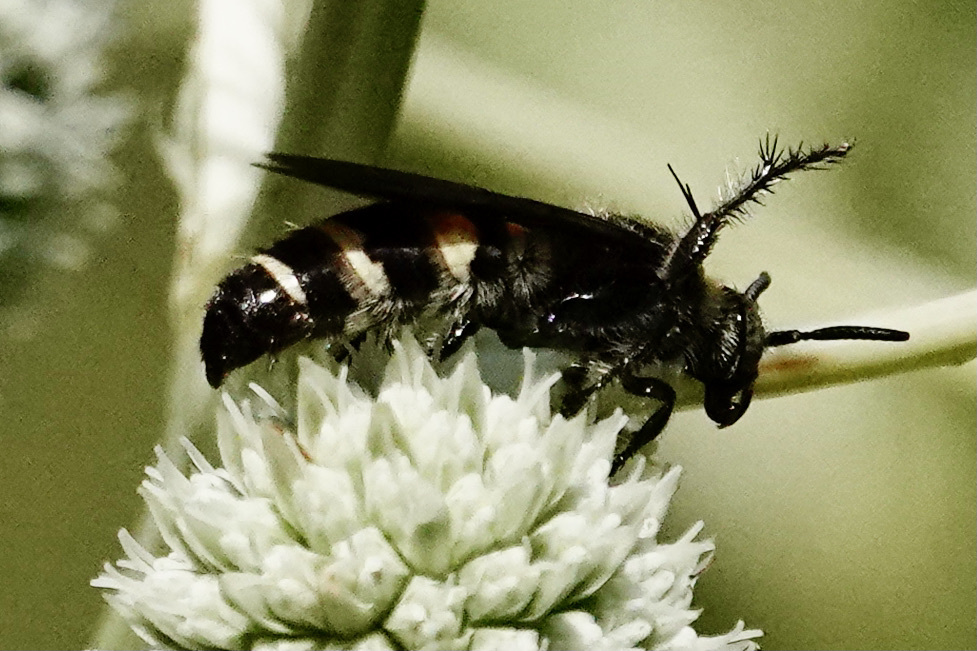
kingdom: Animalia
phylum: Arthropoda
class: Insecta
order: Hymenoptera
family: Scoliidae
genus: Dielis
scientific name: Dielis
